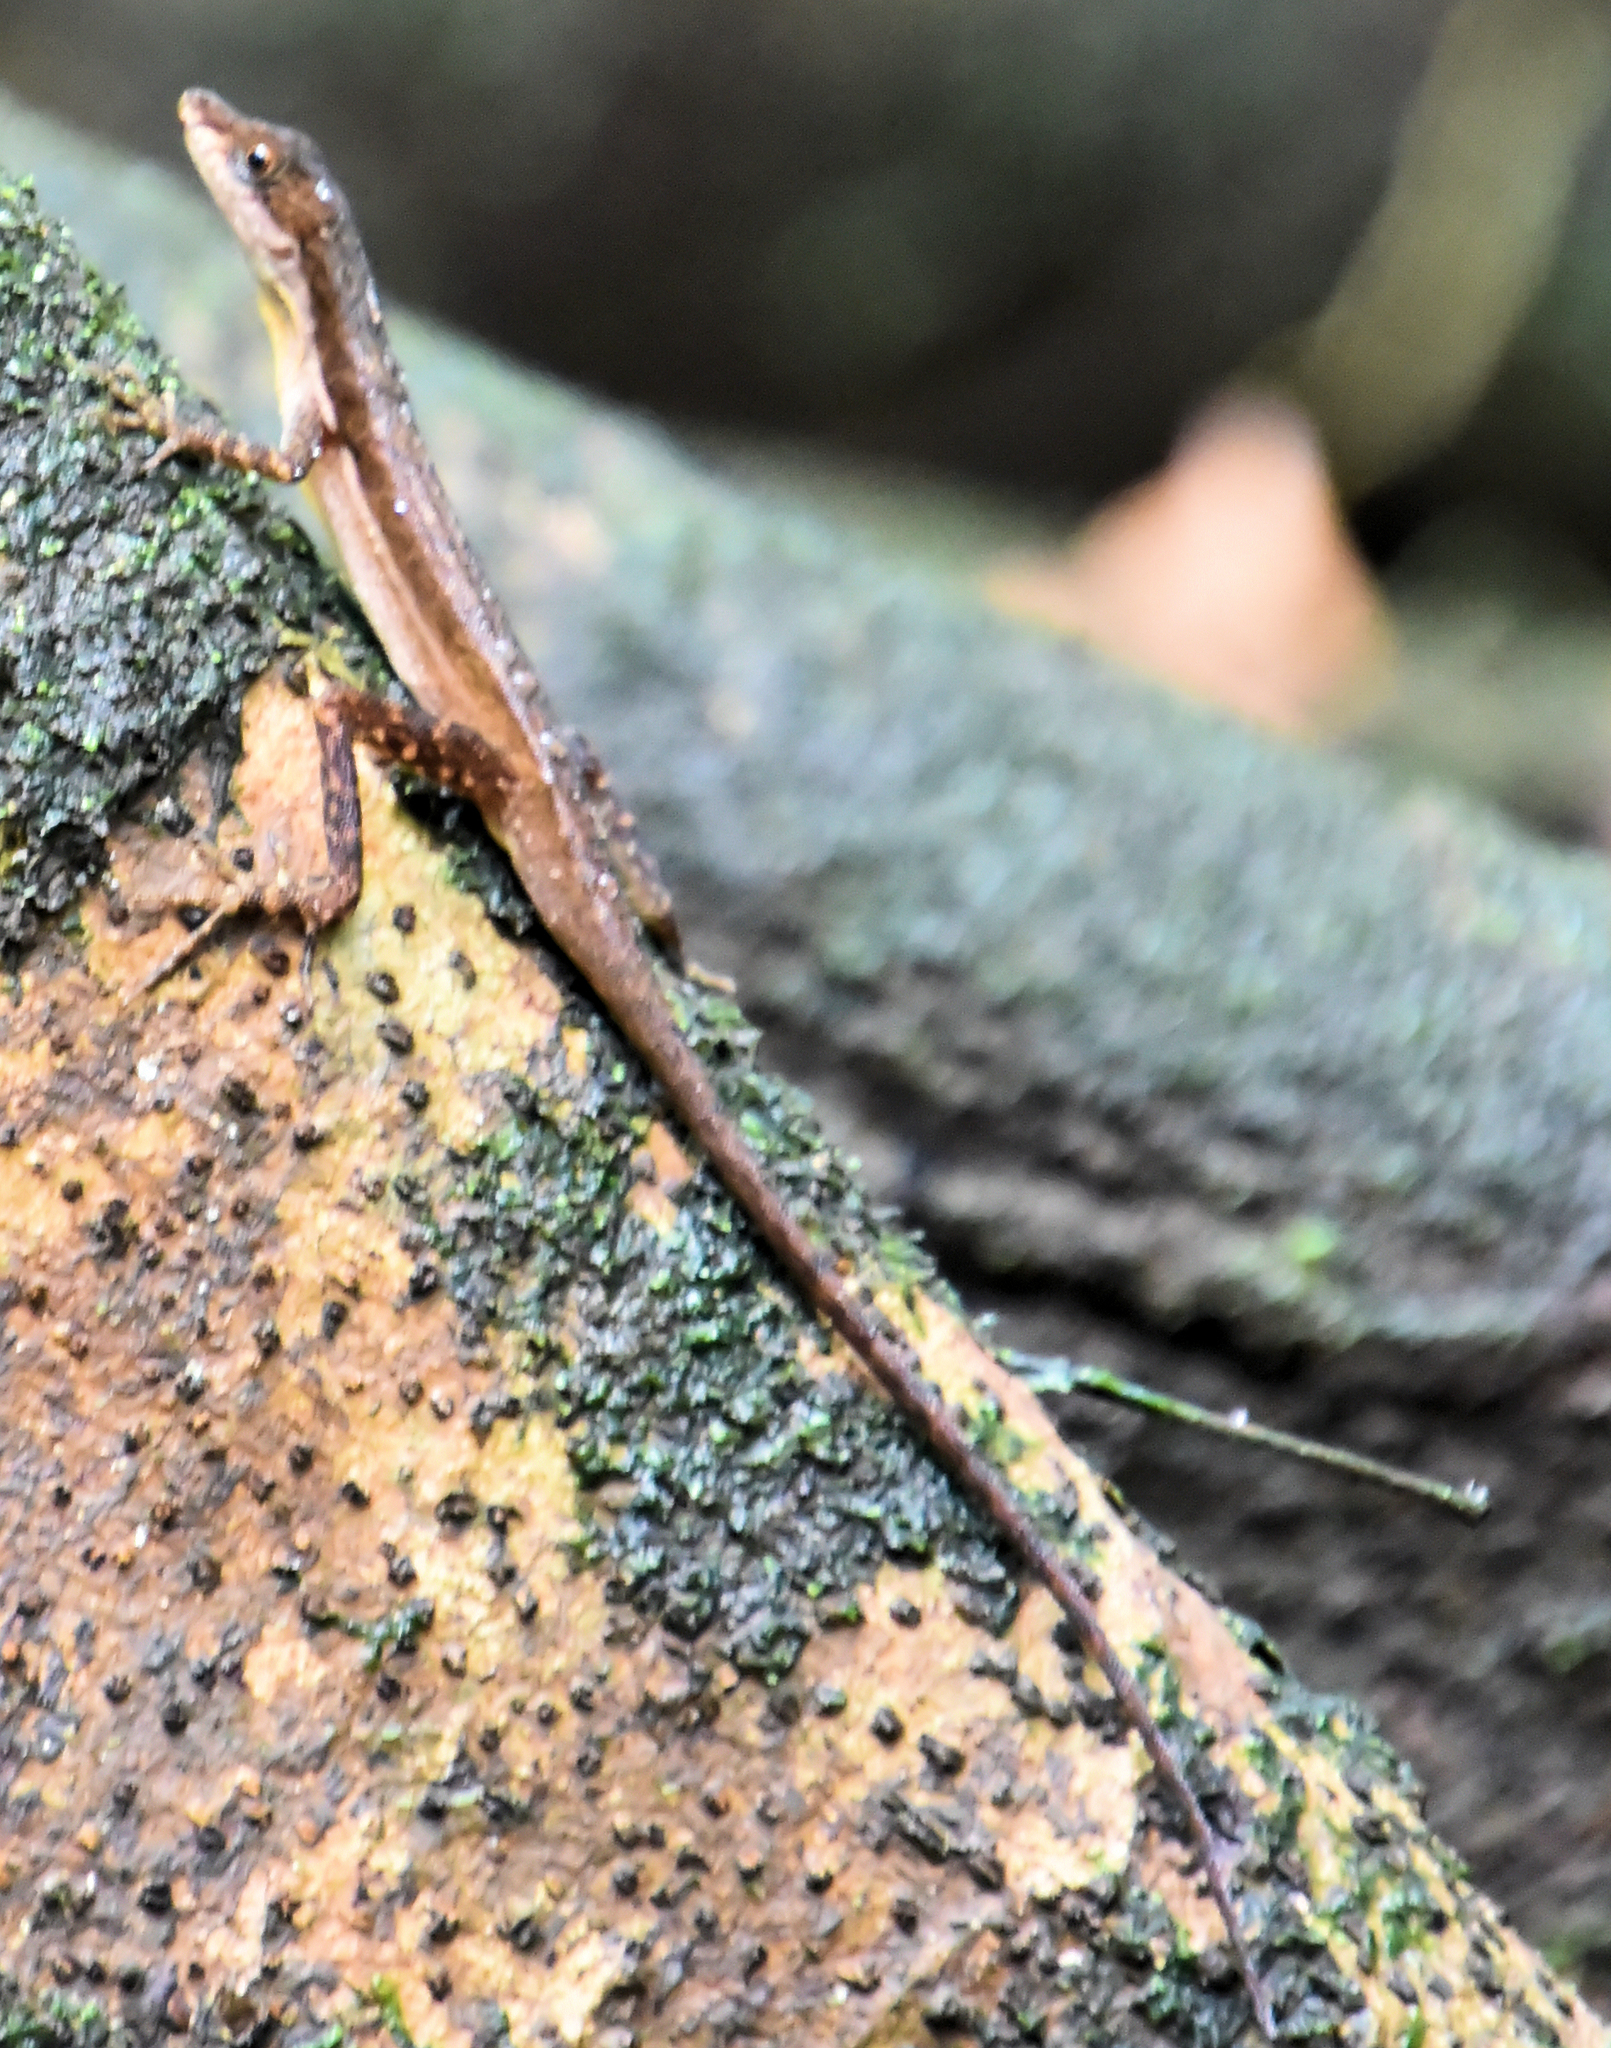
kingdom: Animalia
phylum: Chordata
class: Squamata
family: Dactyloidae
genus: Anolis
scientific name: Anolis oxylophus
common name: Stream anole
